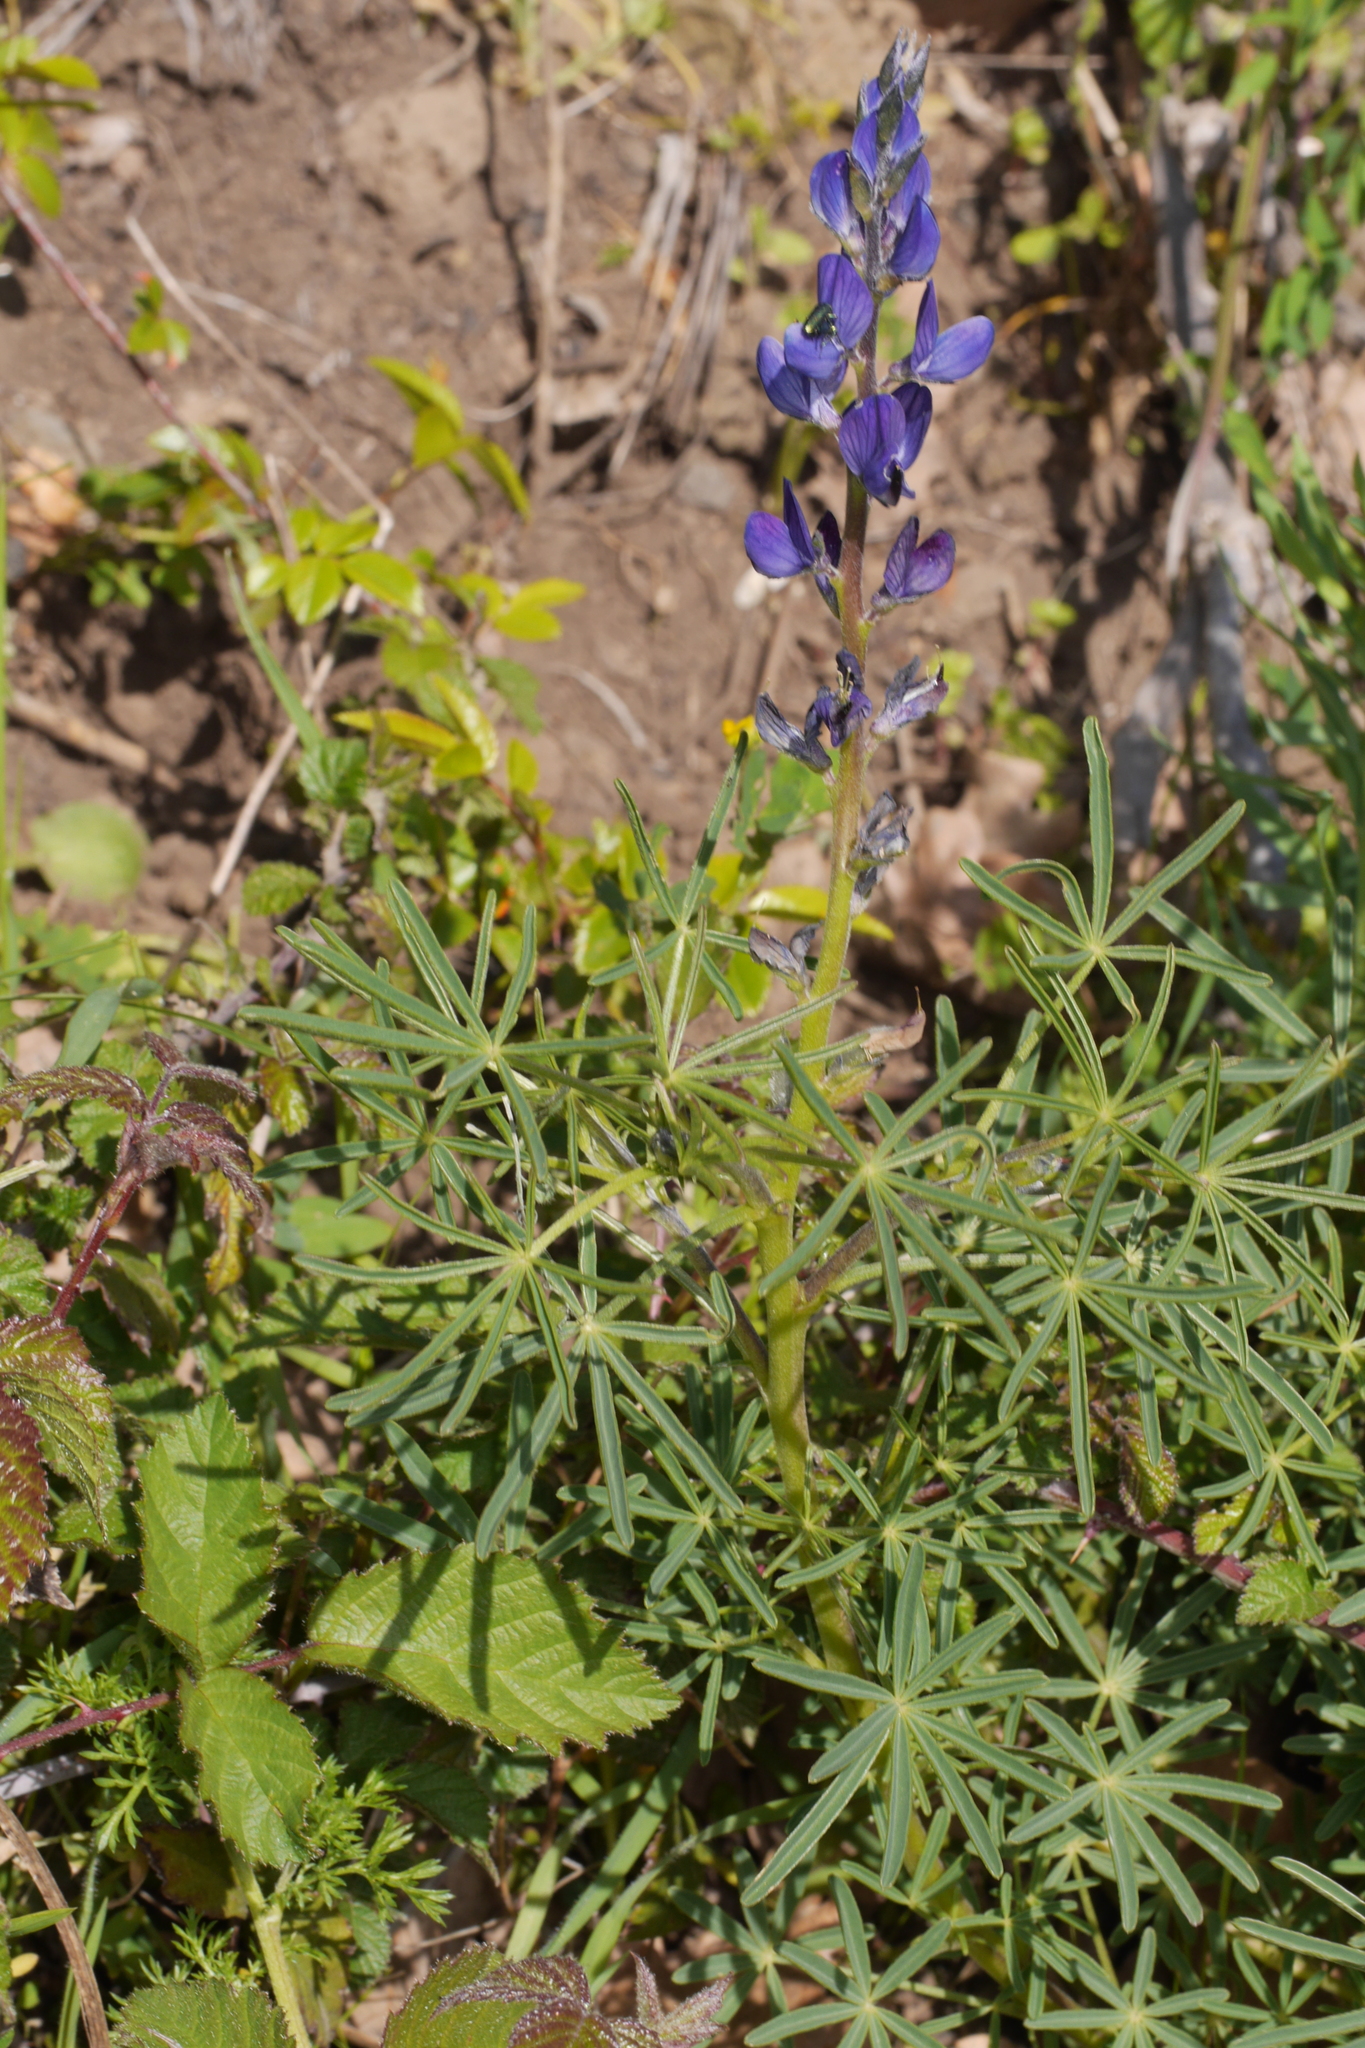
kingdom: Plantae
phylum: Tracheophyta
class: Magnoliopsida
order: Fabales
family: Fabaceae
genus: Lupinus
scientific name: Lupinus angustifolius
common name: Narrow-leaved lupin
